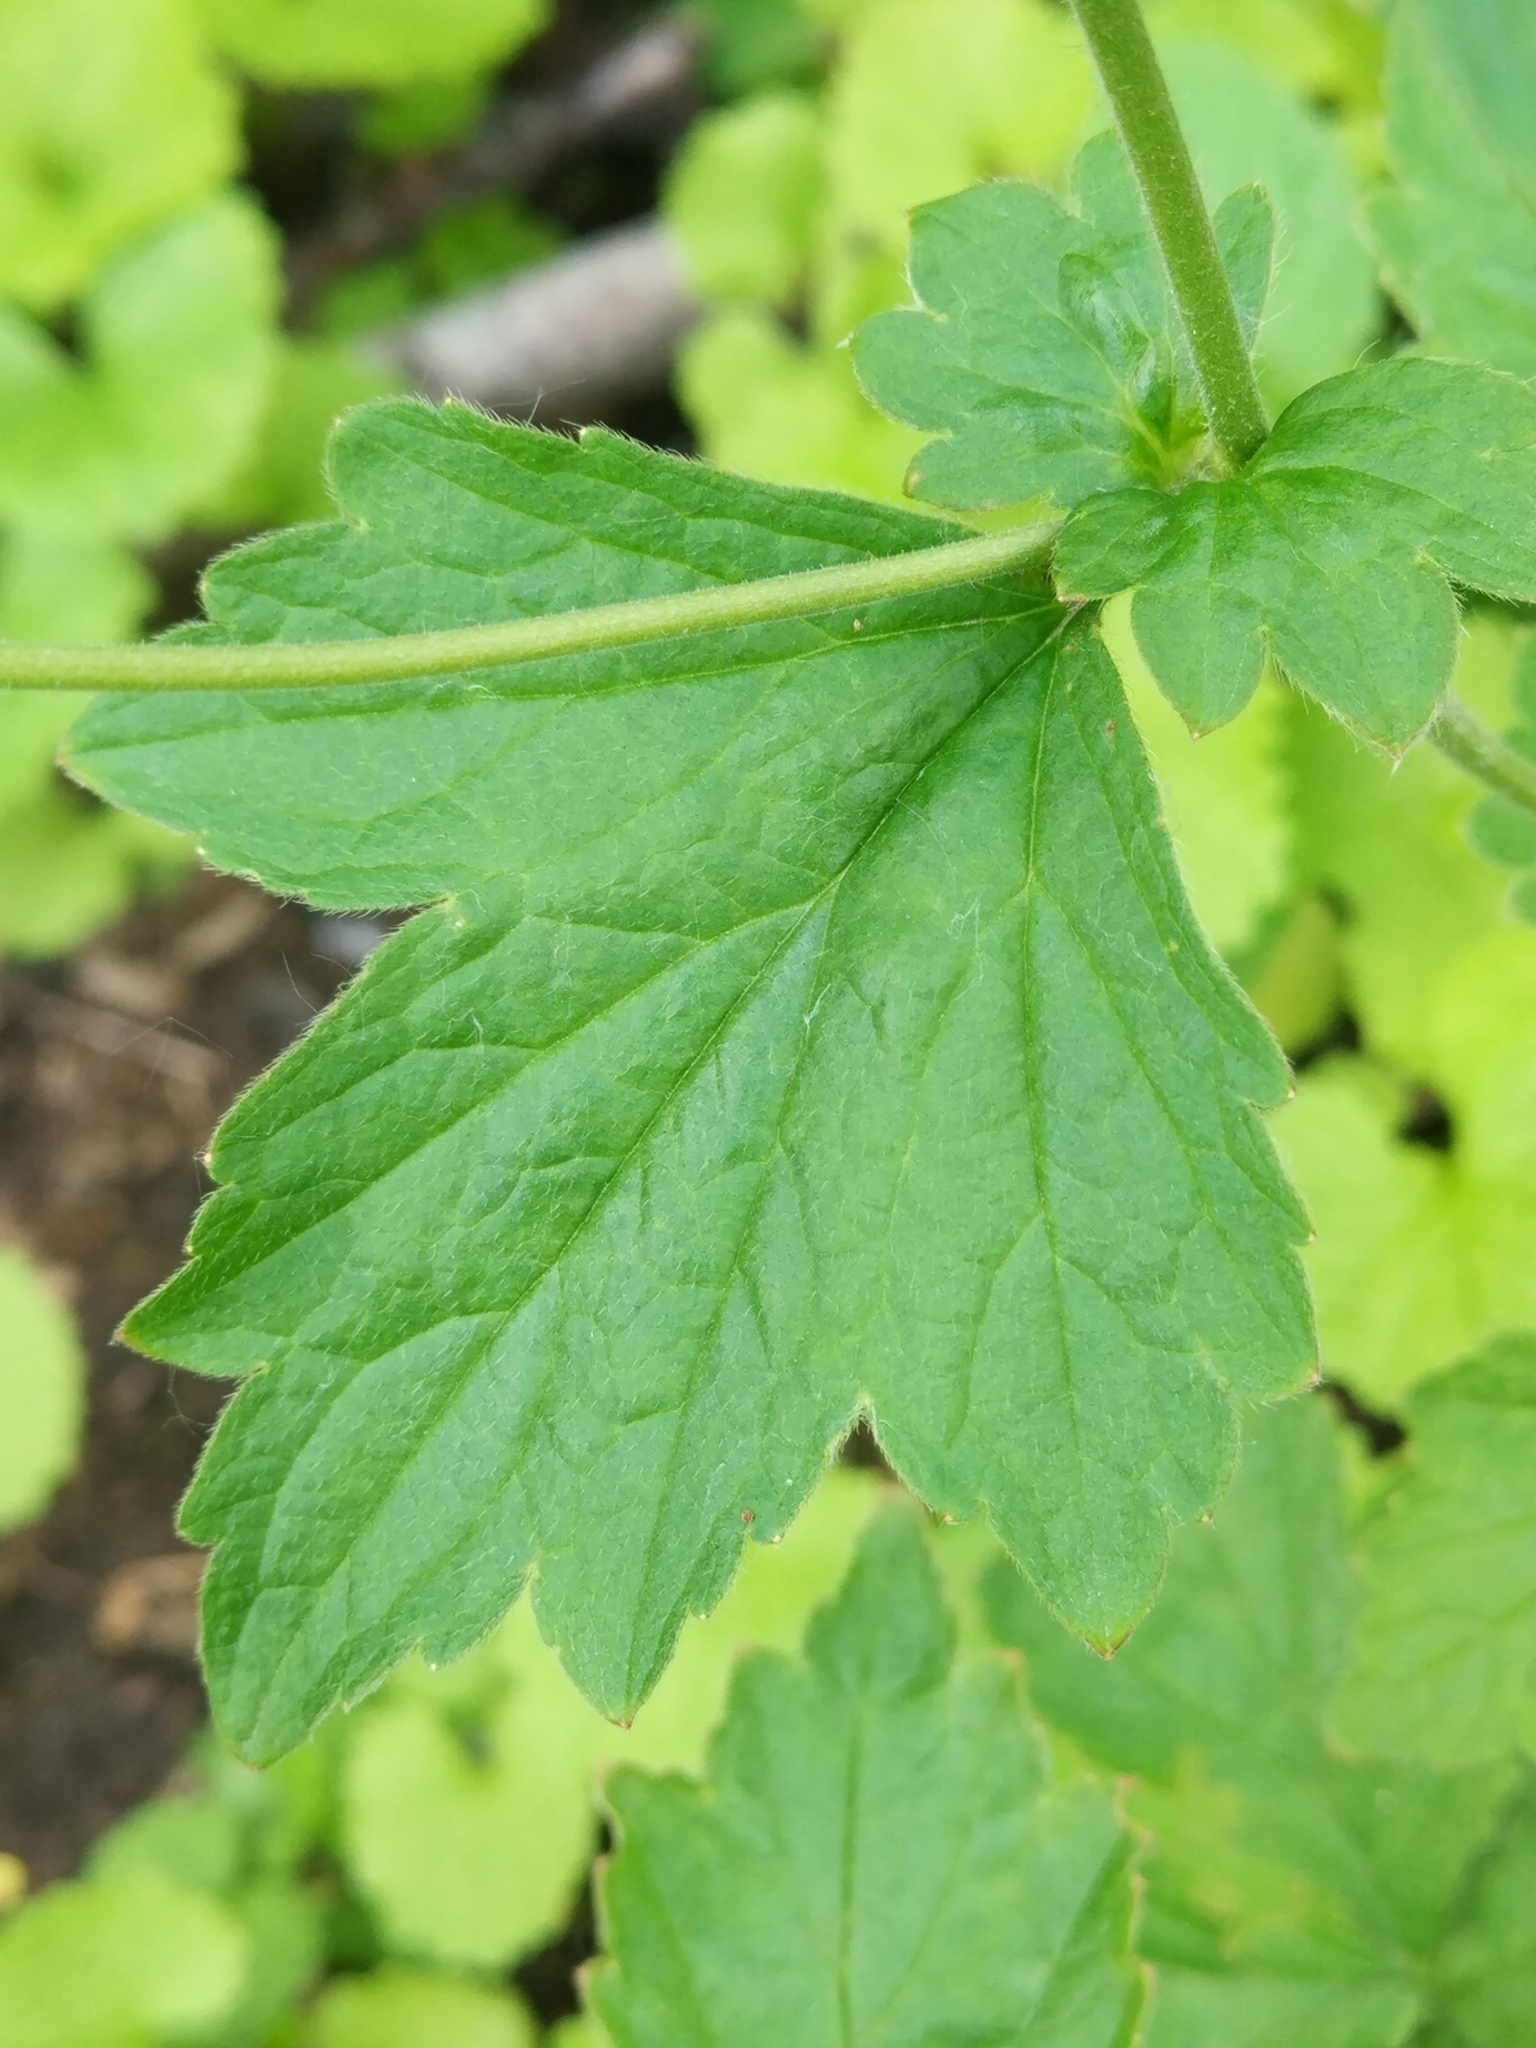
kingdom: Plantae
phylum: Tracheophyta
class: Magnoliopsida
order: Rosales
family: Rosaceae
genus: Geum
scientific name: Geum urbanum
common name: Wood avens
